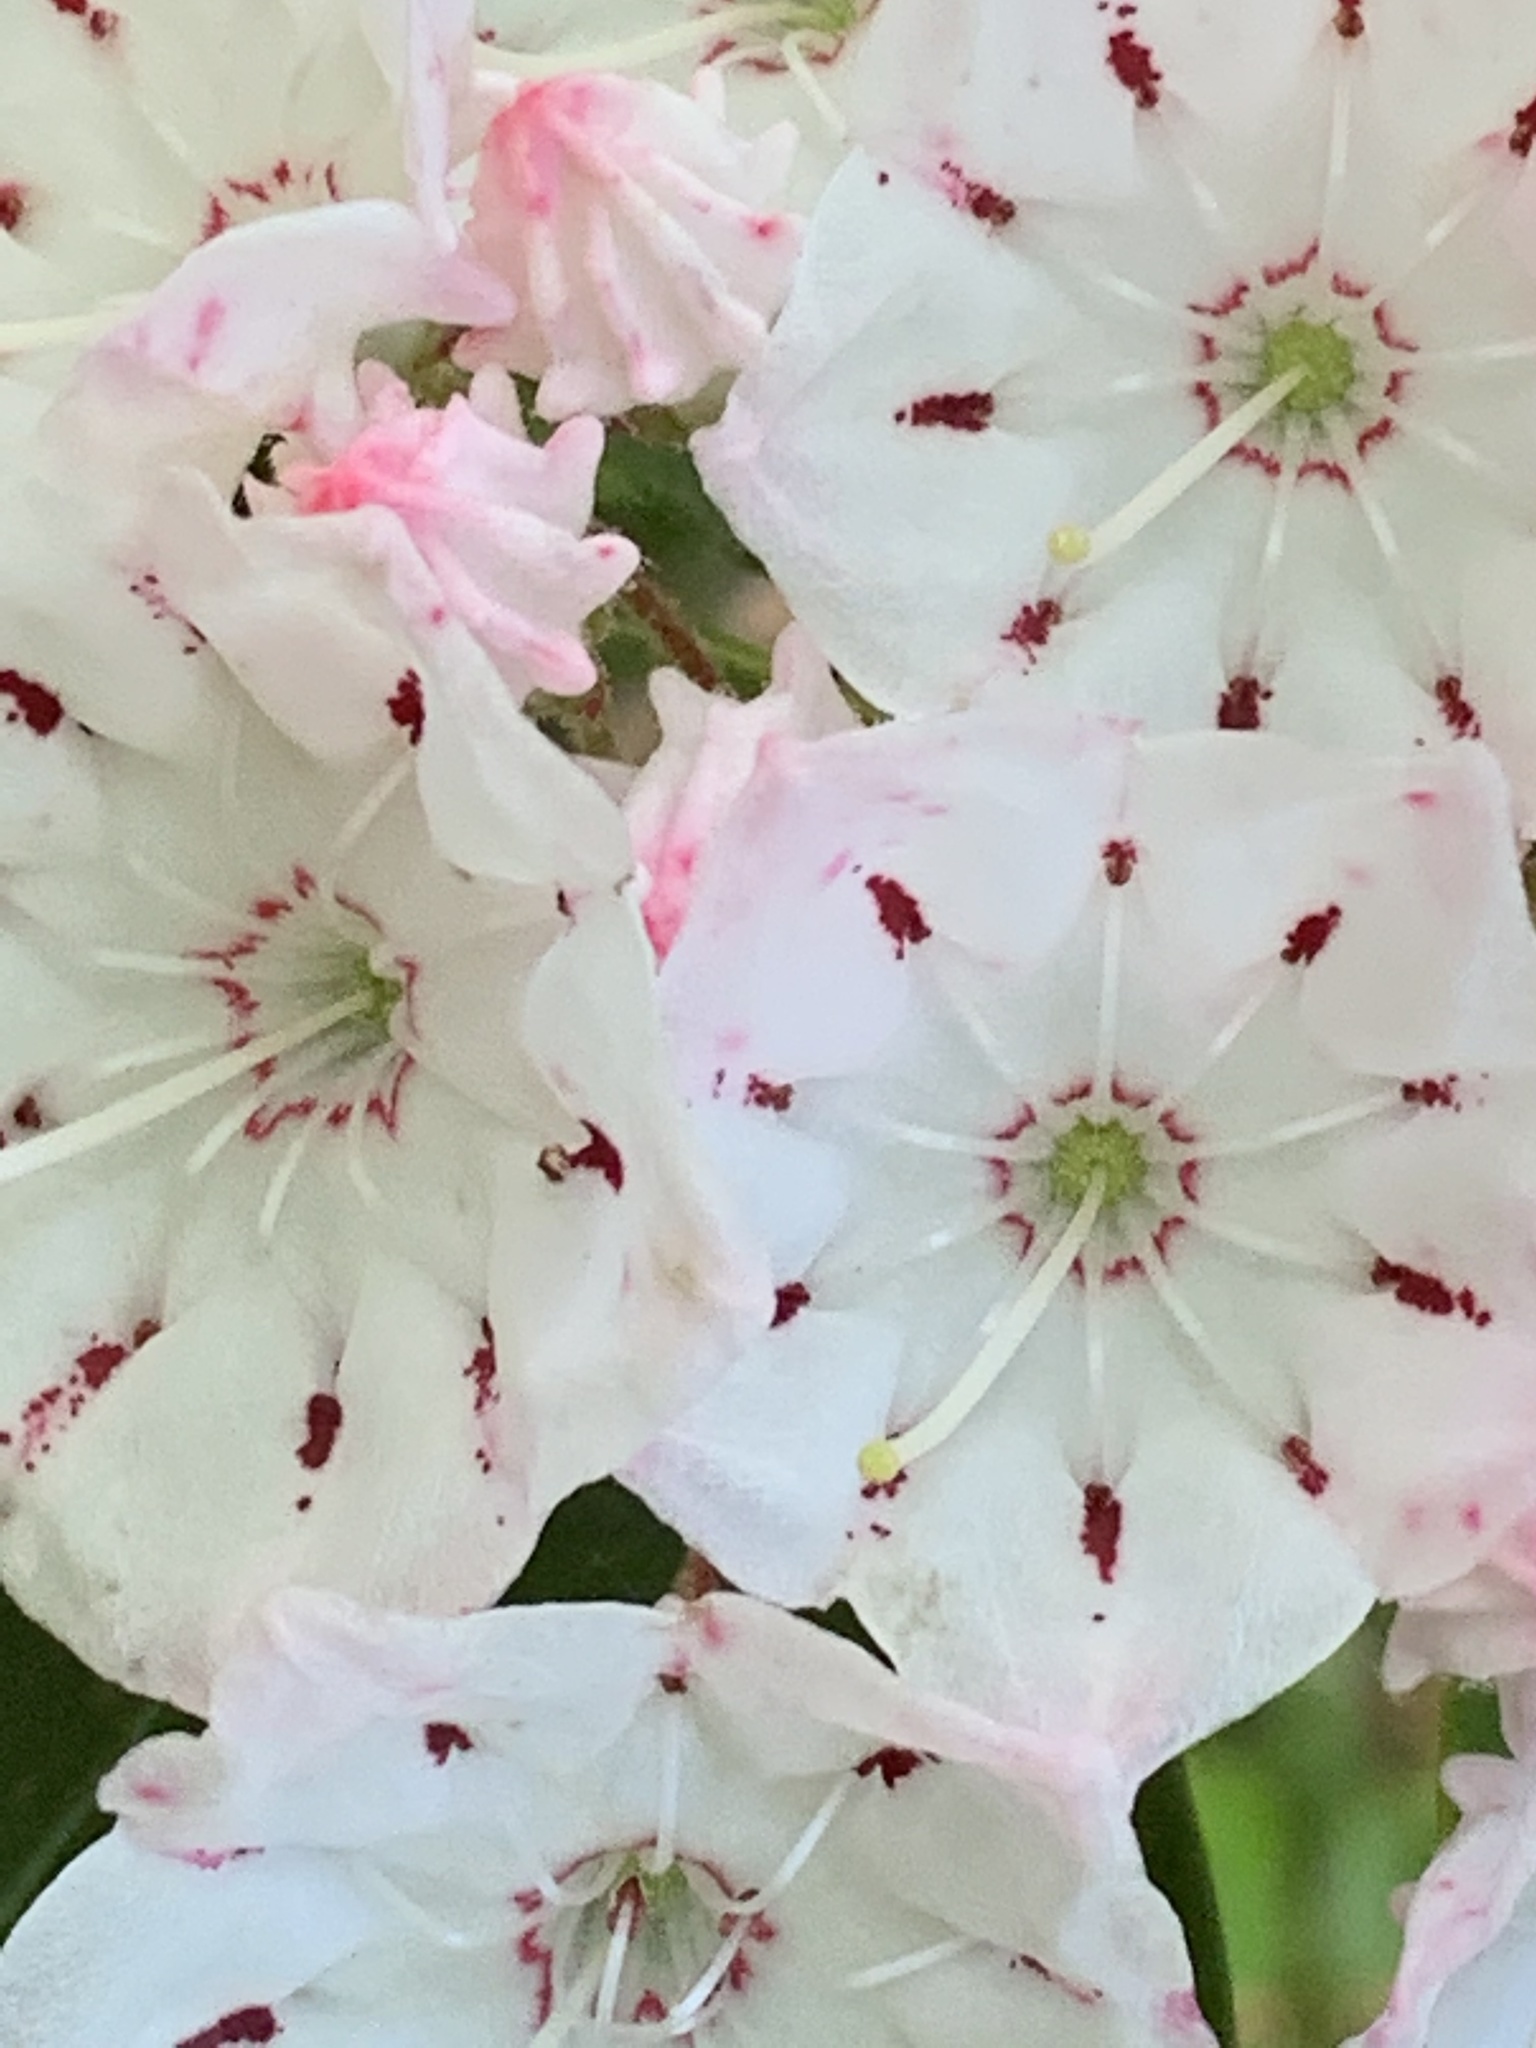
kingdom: Plantae
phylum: Tracheophyta
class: Magnoliopsida
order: Ericales
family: Ericaceae
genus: Kalmia
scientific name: Kalmia latifolia
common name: Mountain-laurel
